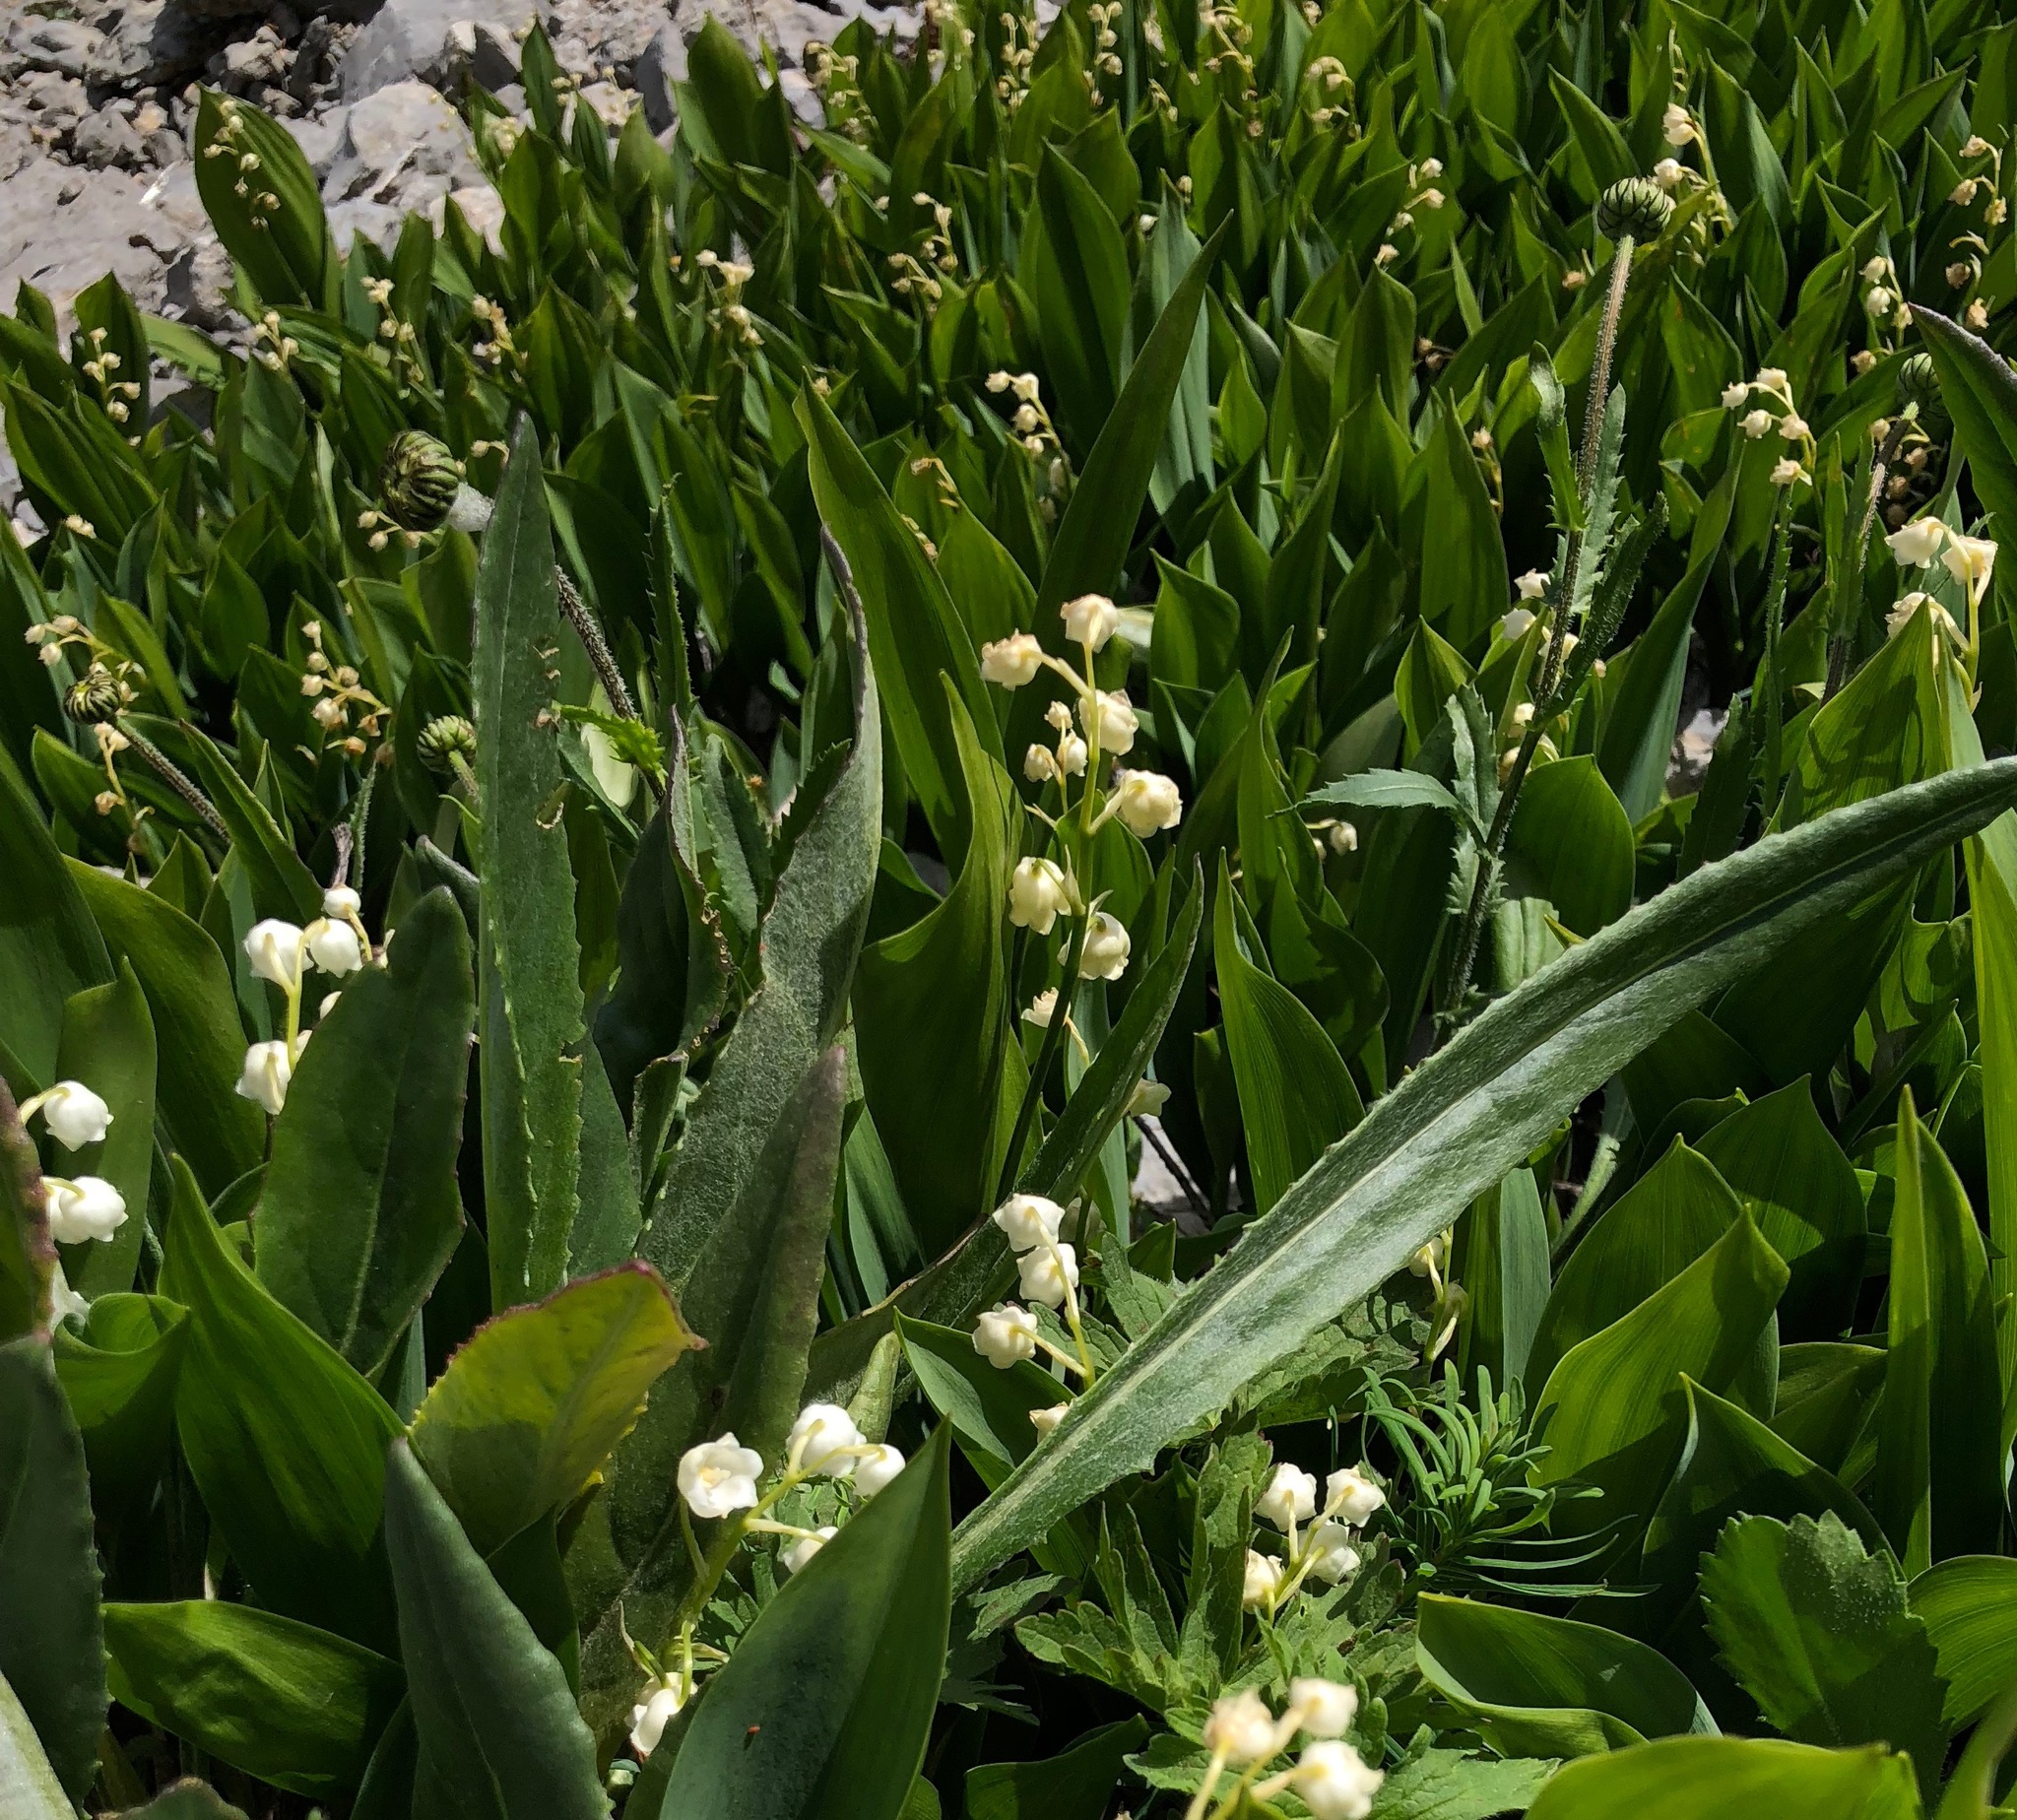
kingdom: Plantae
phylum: Tracheophyta
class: Liliopsida
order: Asparagales
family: Asparagaceae
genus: Convallaria
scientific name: Convallaria majalis
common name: Lily-of-the-valley
